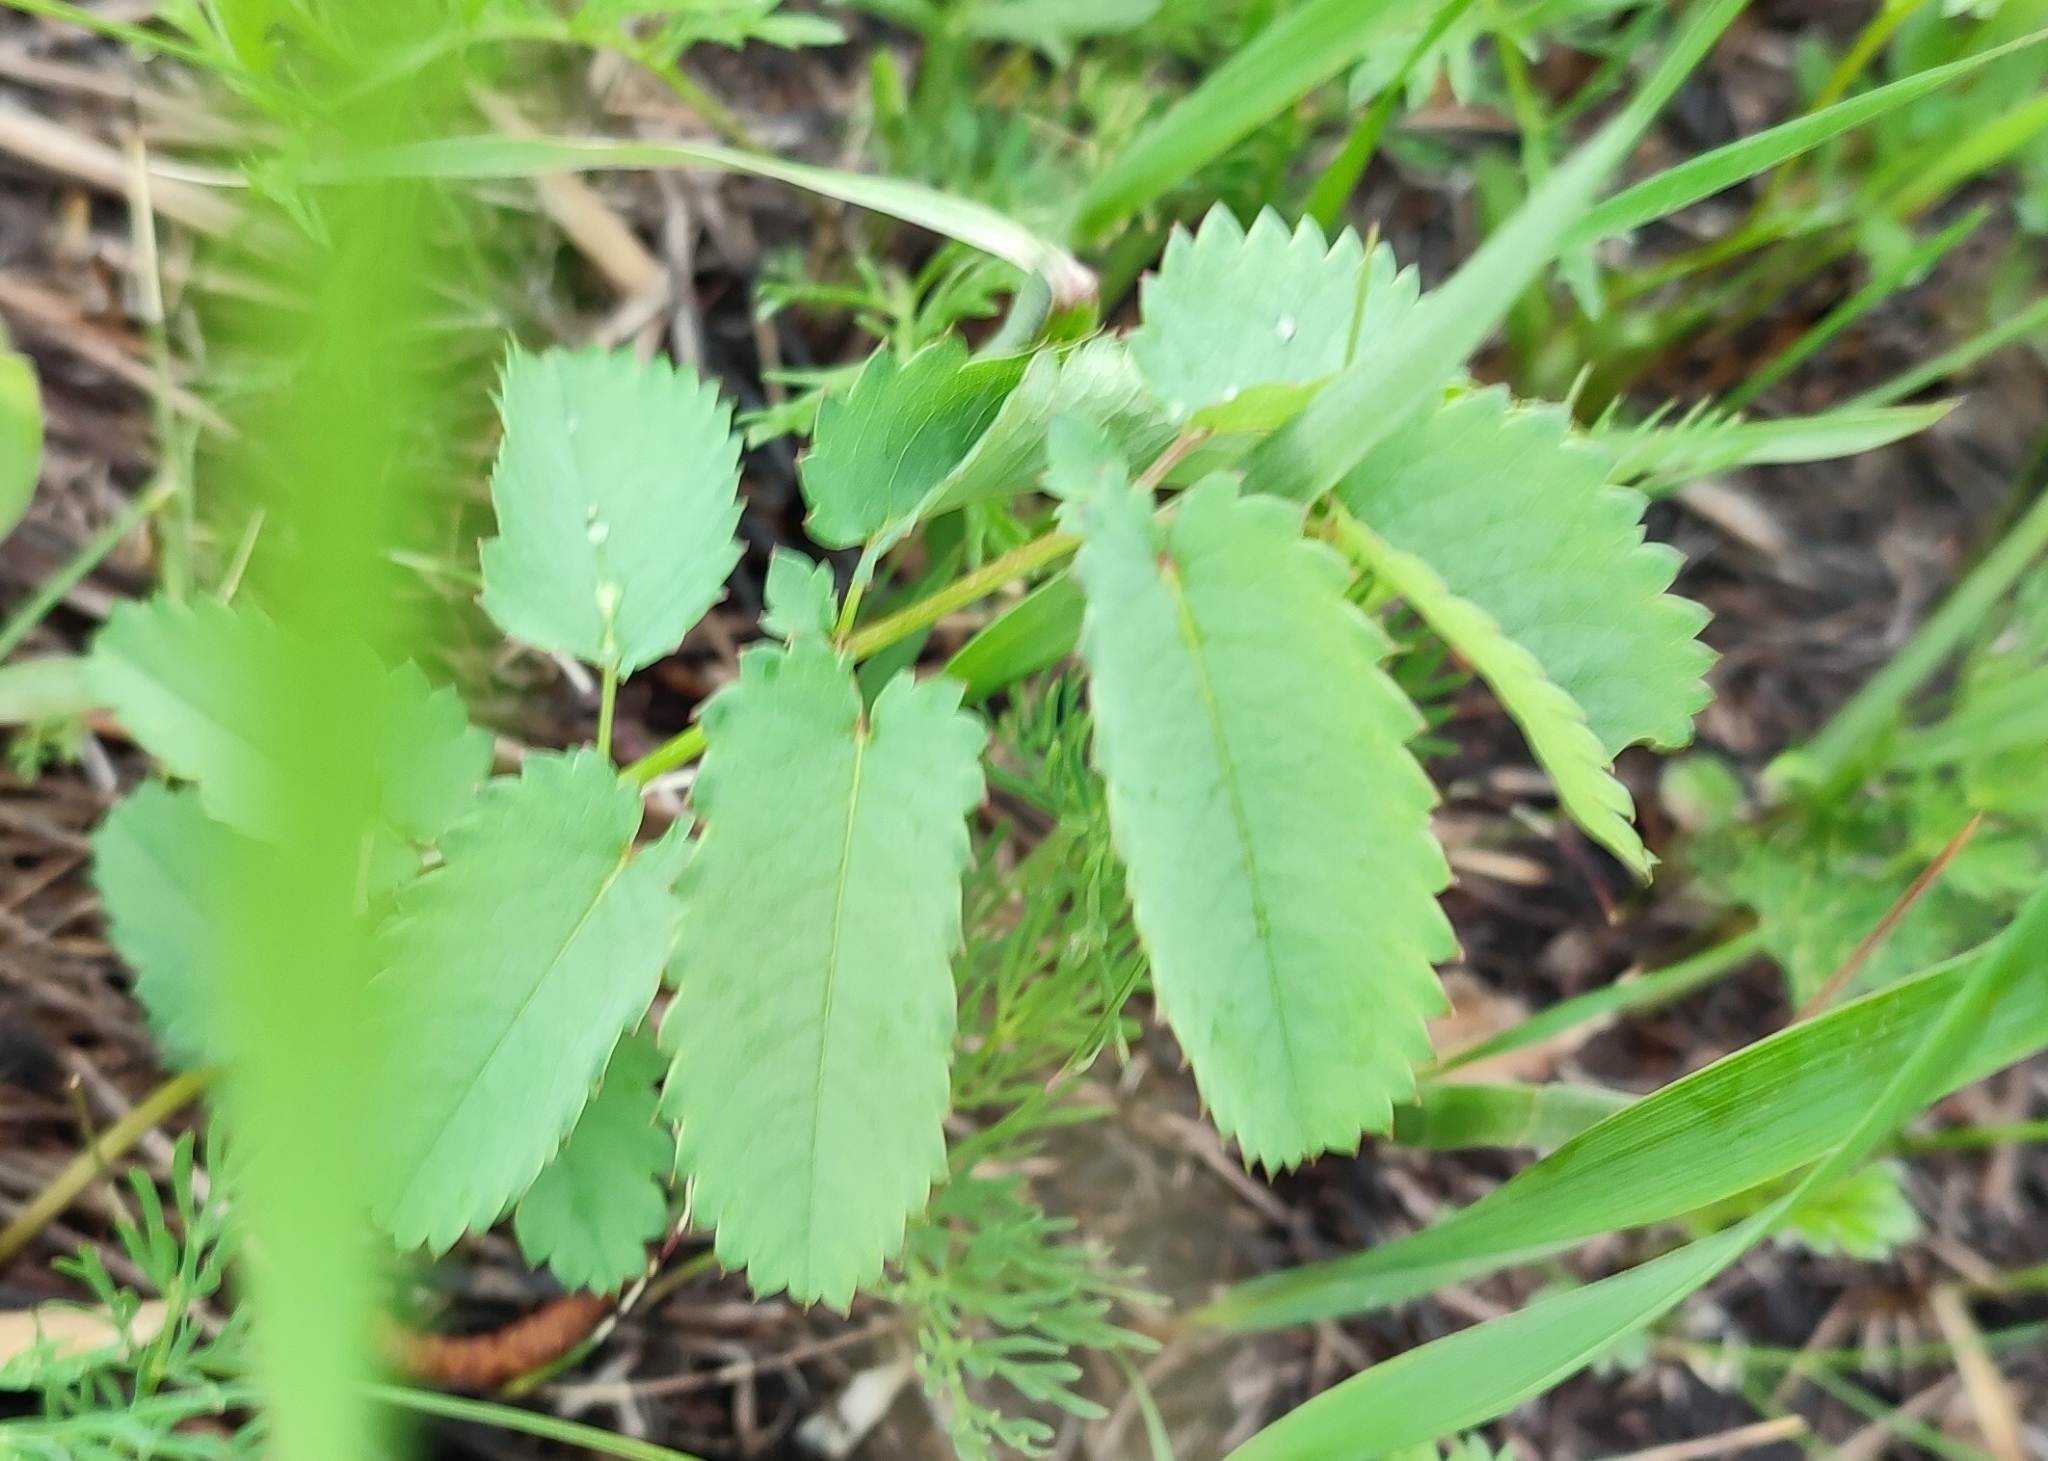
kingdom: Plantae
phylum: Tracheophyta
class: Magnoliopsida
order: Rosales
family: Rosaceae
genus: Sanguisorba
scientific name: Sanguisorba officinalis
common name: Great burnet
